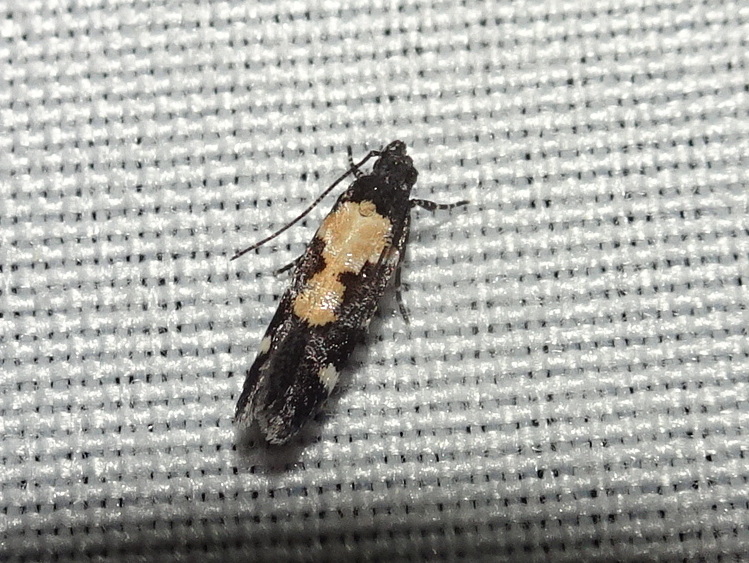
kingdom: Animalia
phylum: Arthropoda
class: Insecta
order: Lepidoptera
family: Gelechiidae
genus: Stegasta
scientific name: Stegasta bosqueella
